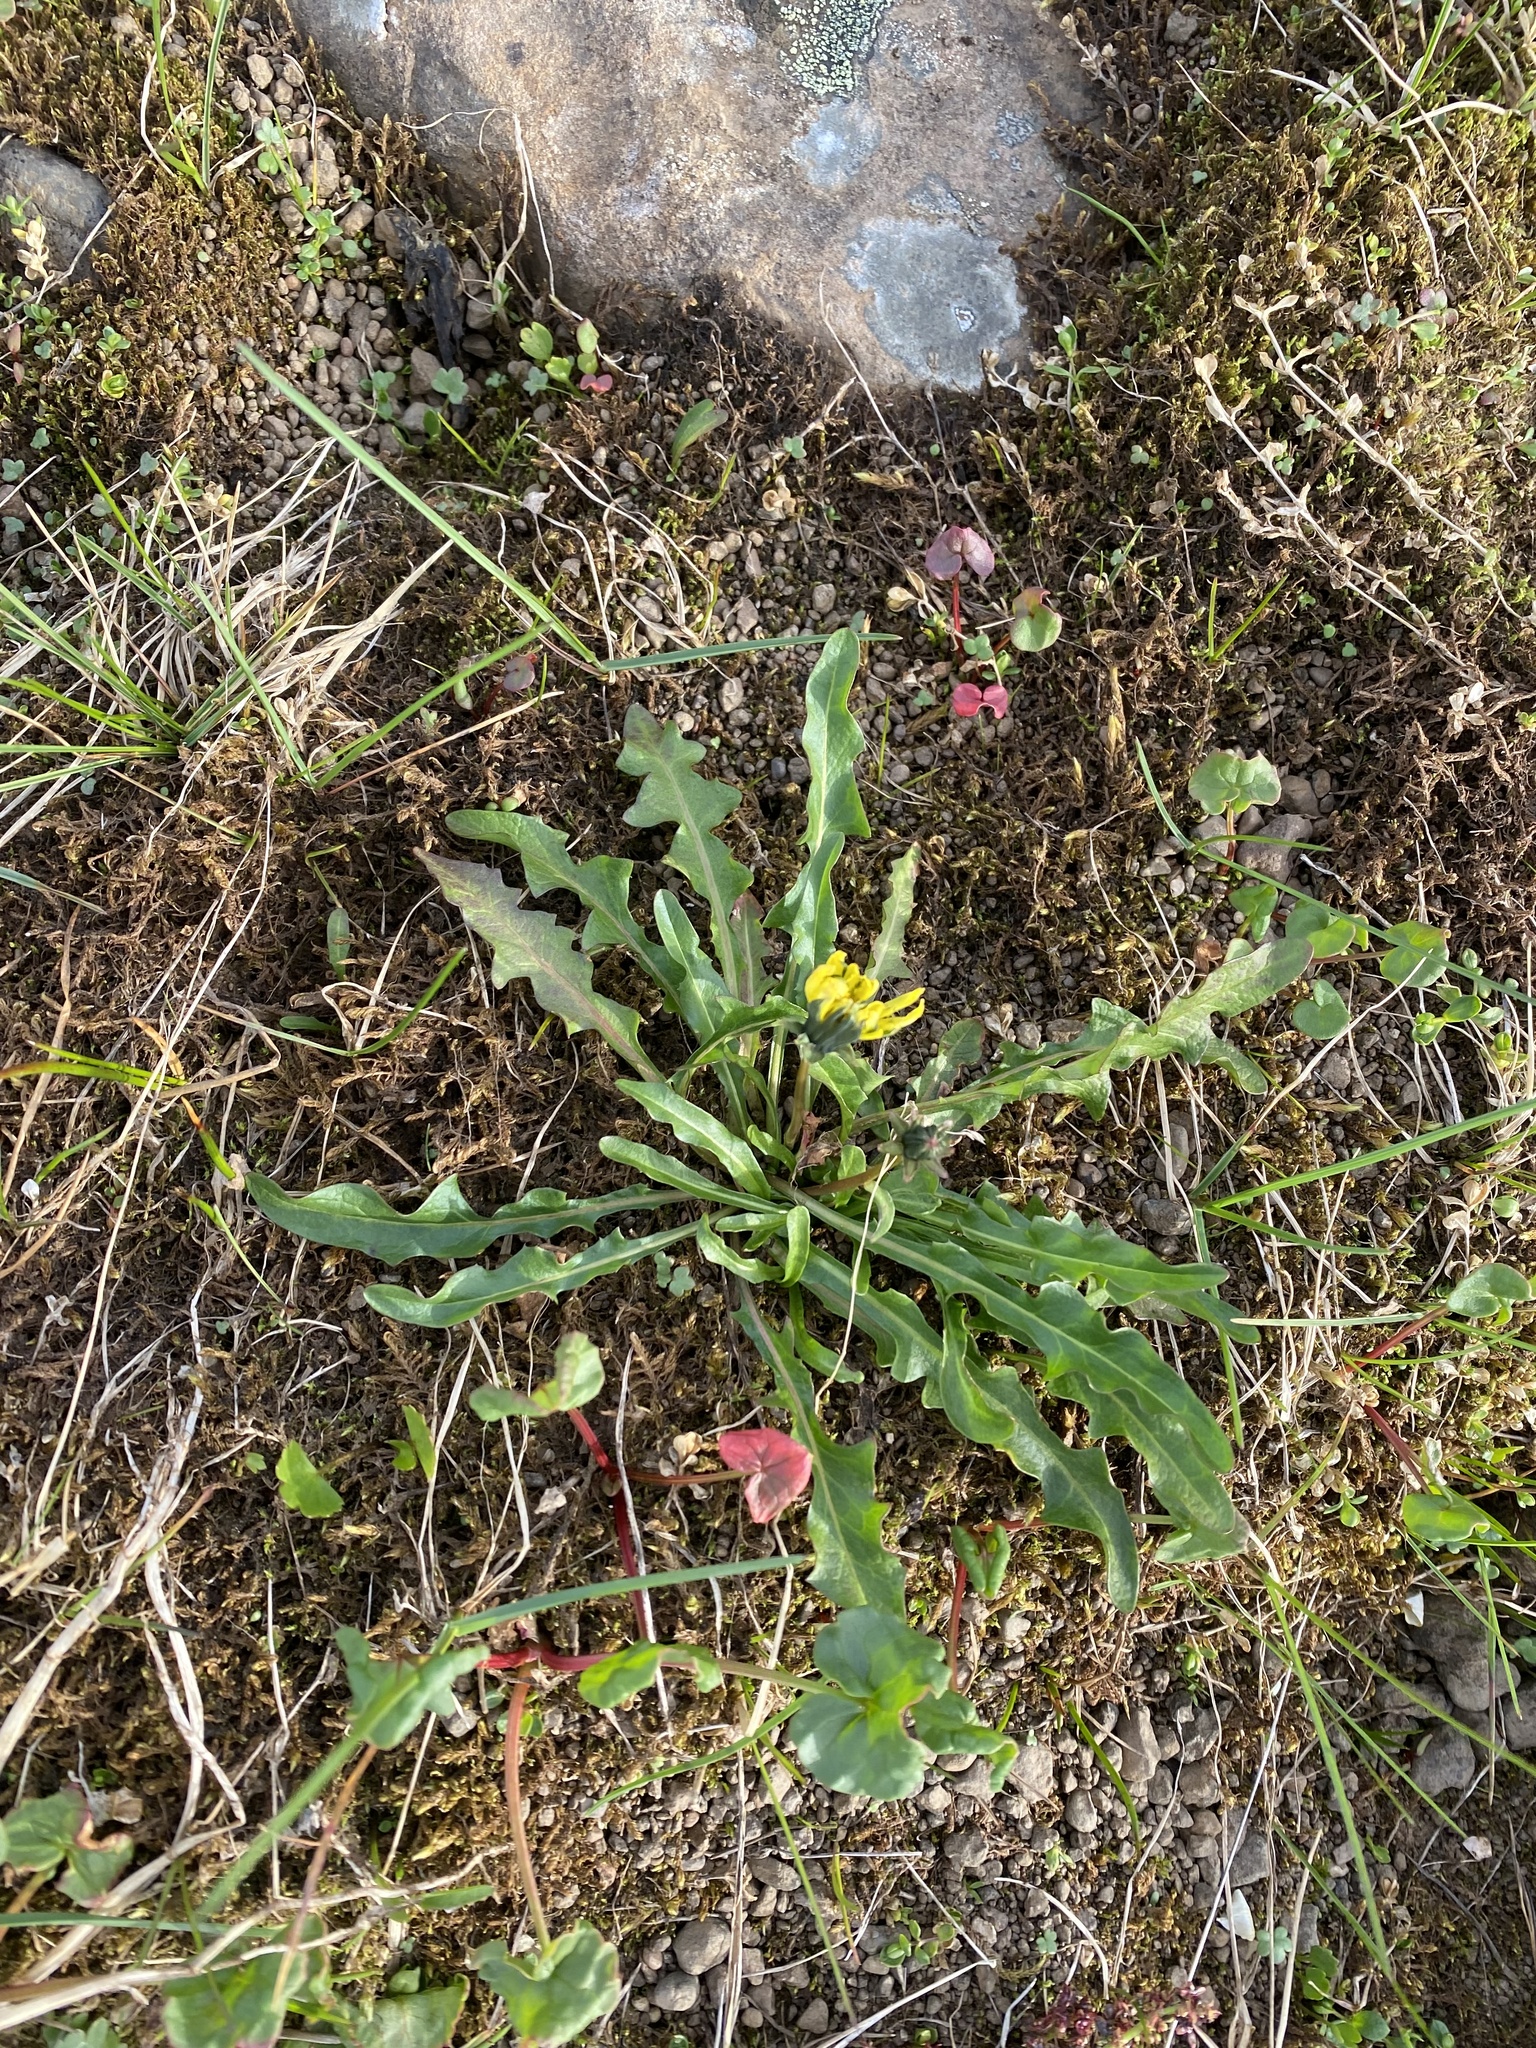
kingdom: Plantae
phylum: Tracheophyta
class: Magnoliopsida
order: Asterales
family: Asteraceae
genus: Taraxacum
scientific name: Taraxacum glabrum
